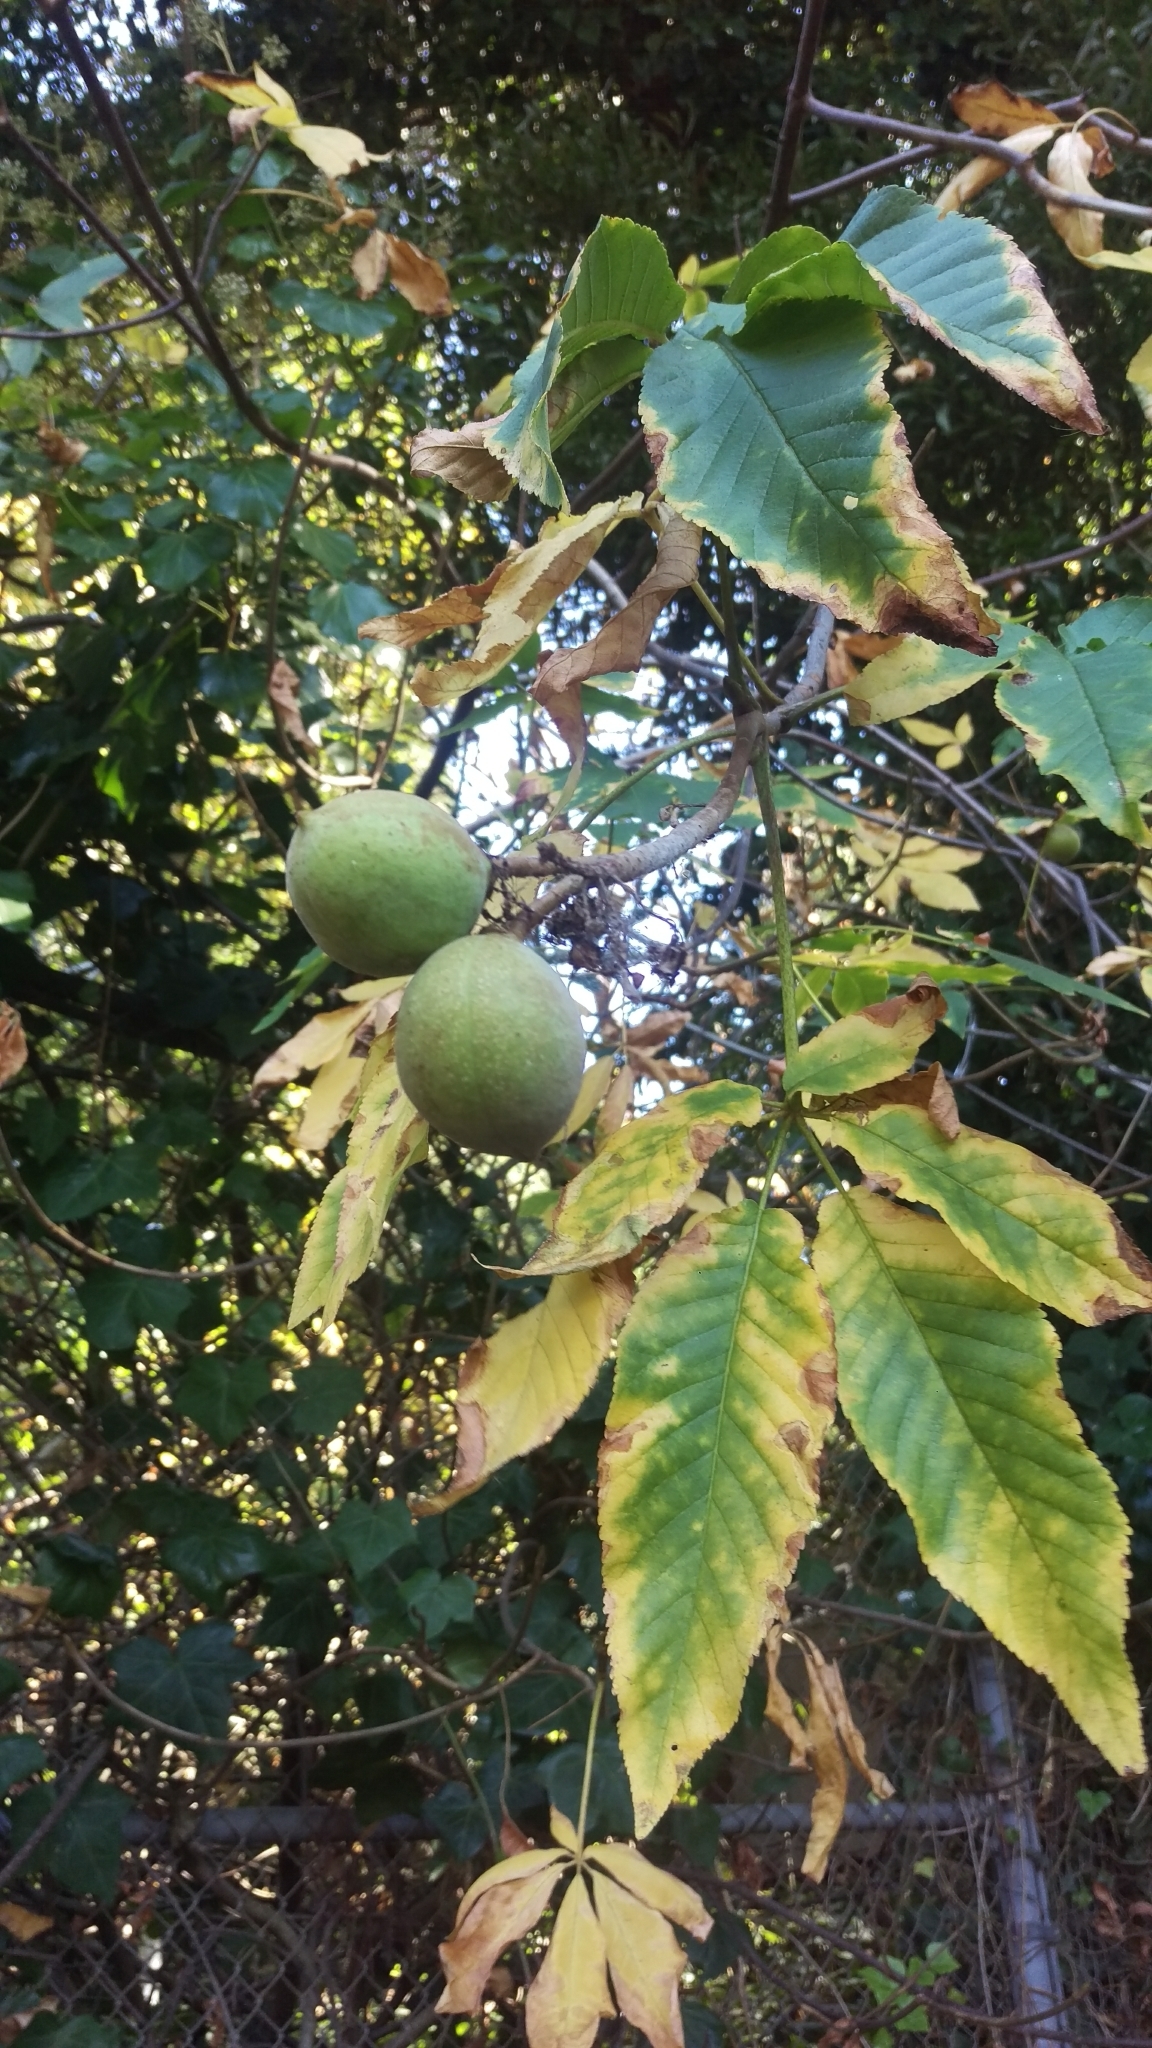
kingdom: Plantae
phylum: Tracheophyta
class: Magnoliopsida
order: Sapindales
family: Sapindaceae
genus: Aesculus
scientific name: Aesculus californica
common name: California buckeye
